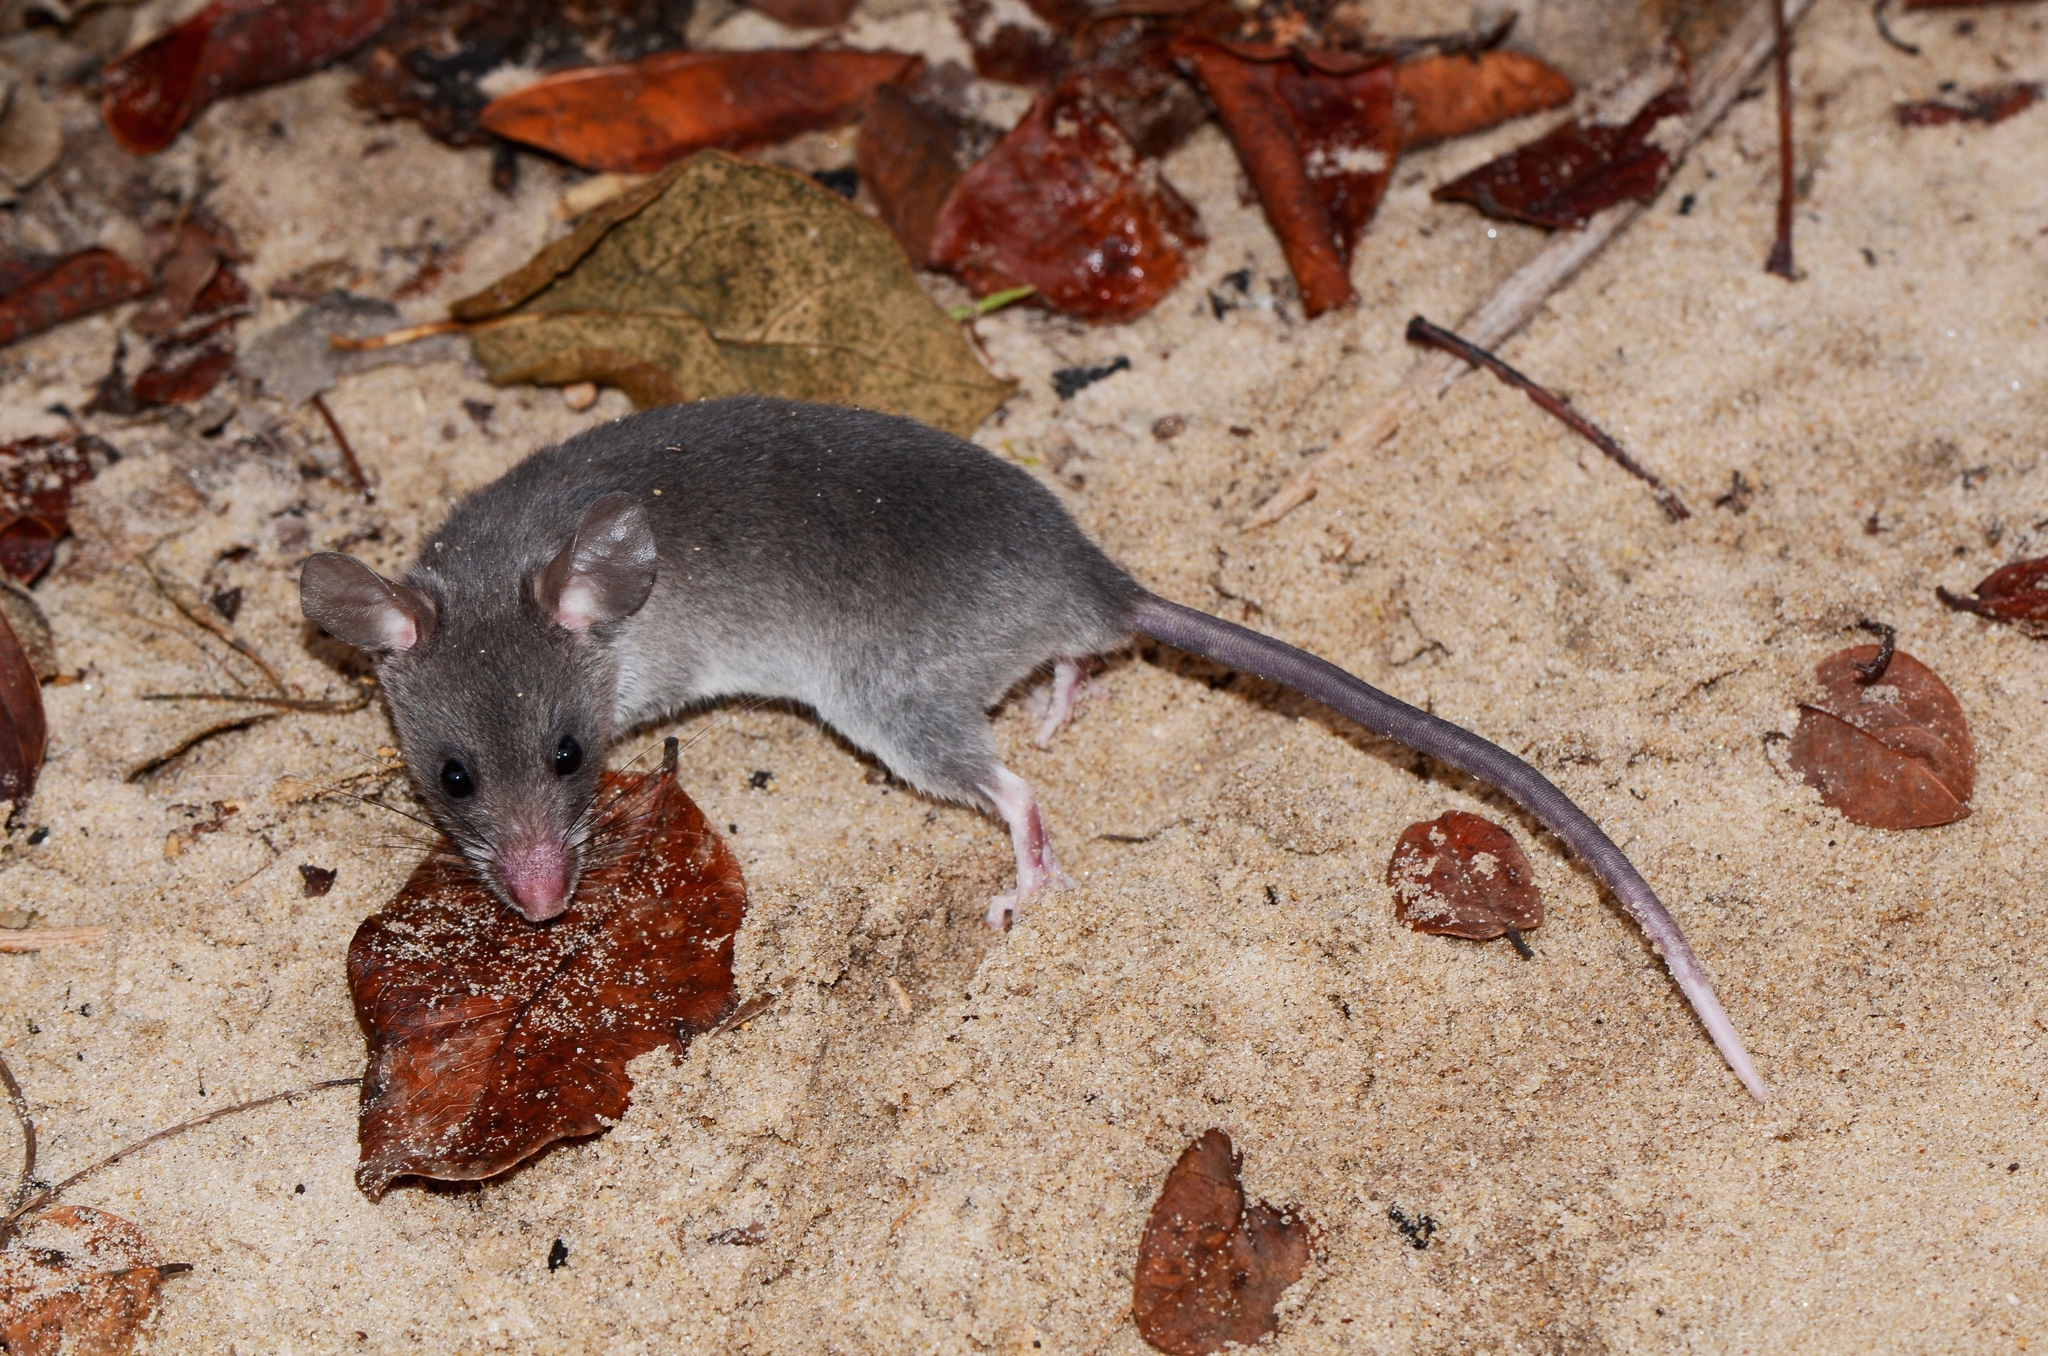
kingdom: Animalia
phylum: Chordata
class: Mammalia
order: Rodentia
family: Nesomyidae
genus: Beamys
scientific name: Beamys hindei
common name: Lesser hamster-rat, long-tailed pouched rat
